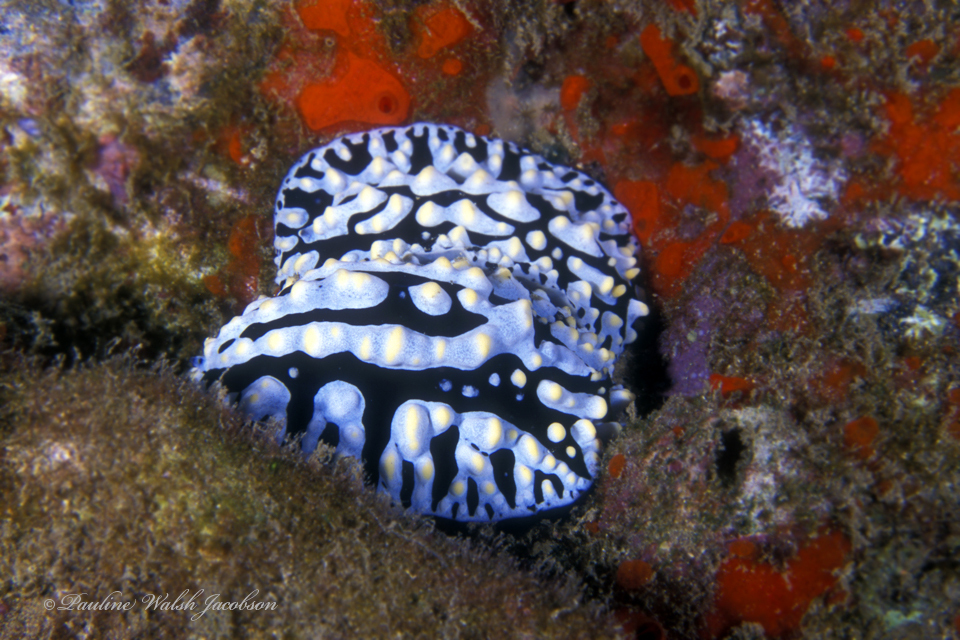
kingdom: Animalia
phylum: Mollusca
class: Gastropoda
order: Nudibranchia
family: Phyllidiidae
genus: Phyllidia
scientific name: Phyllidia varicosa
